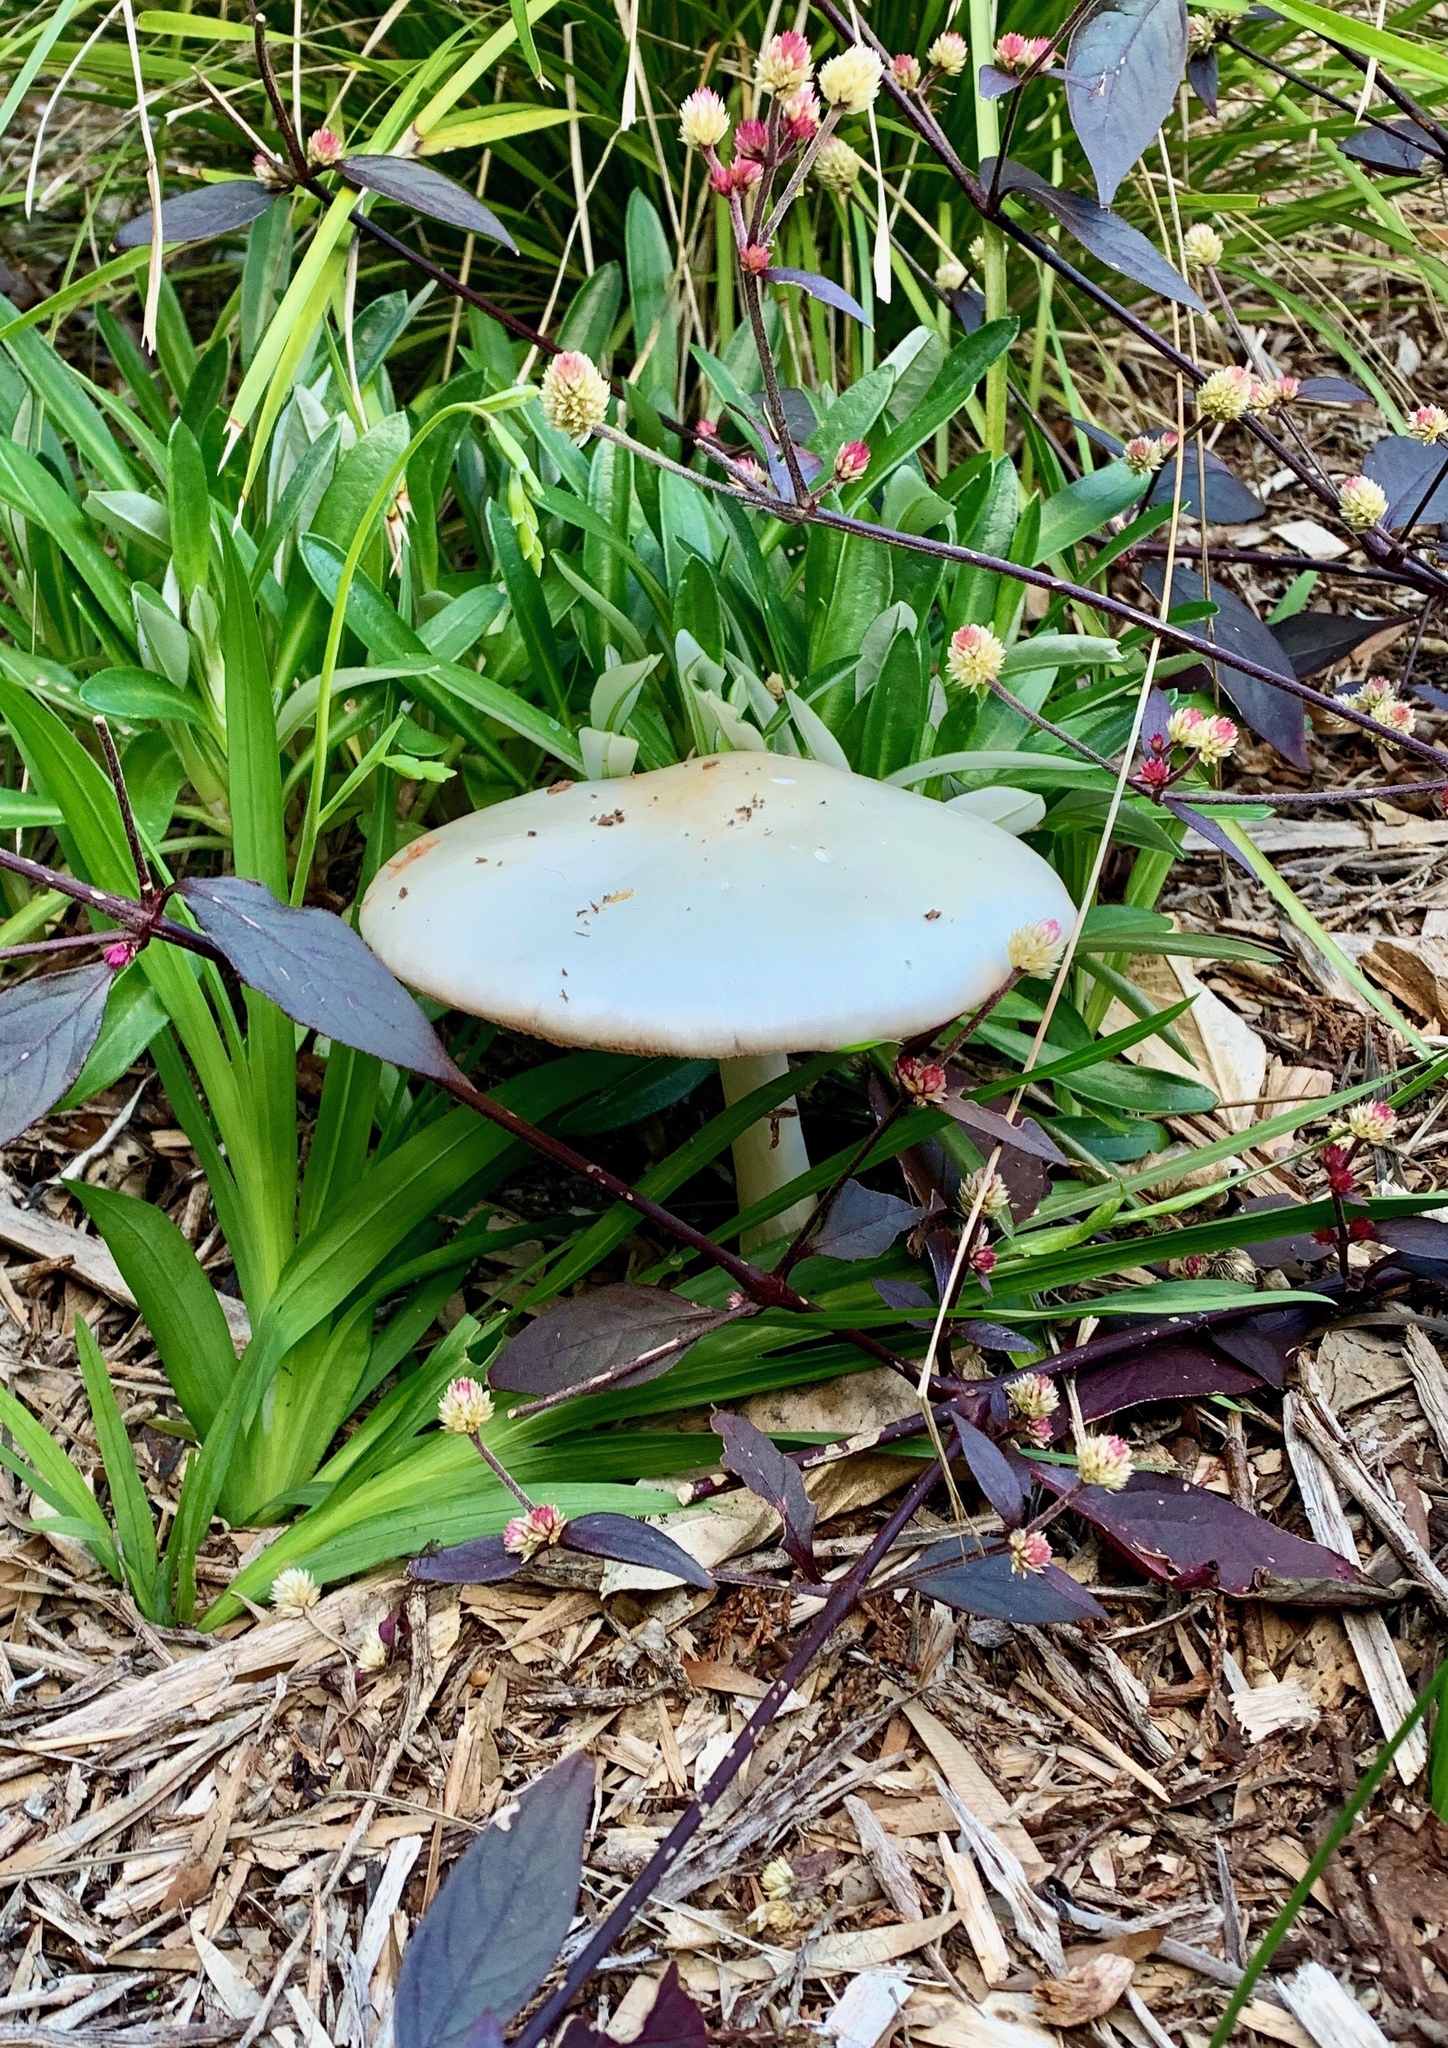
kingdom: Fungi
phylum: Basidiomycota
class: Agaricomycetes
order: Agaricales
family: Pluteaceae
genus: Volvopluteus
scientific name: Volvopluteus gloiocephalus
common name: Stubble rosegill
